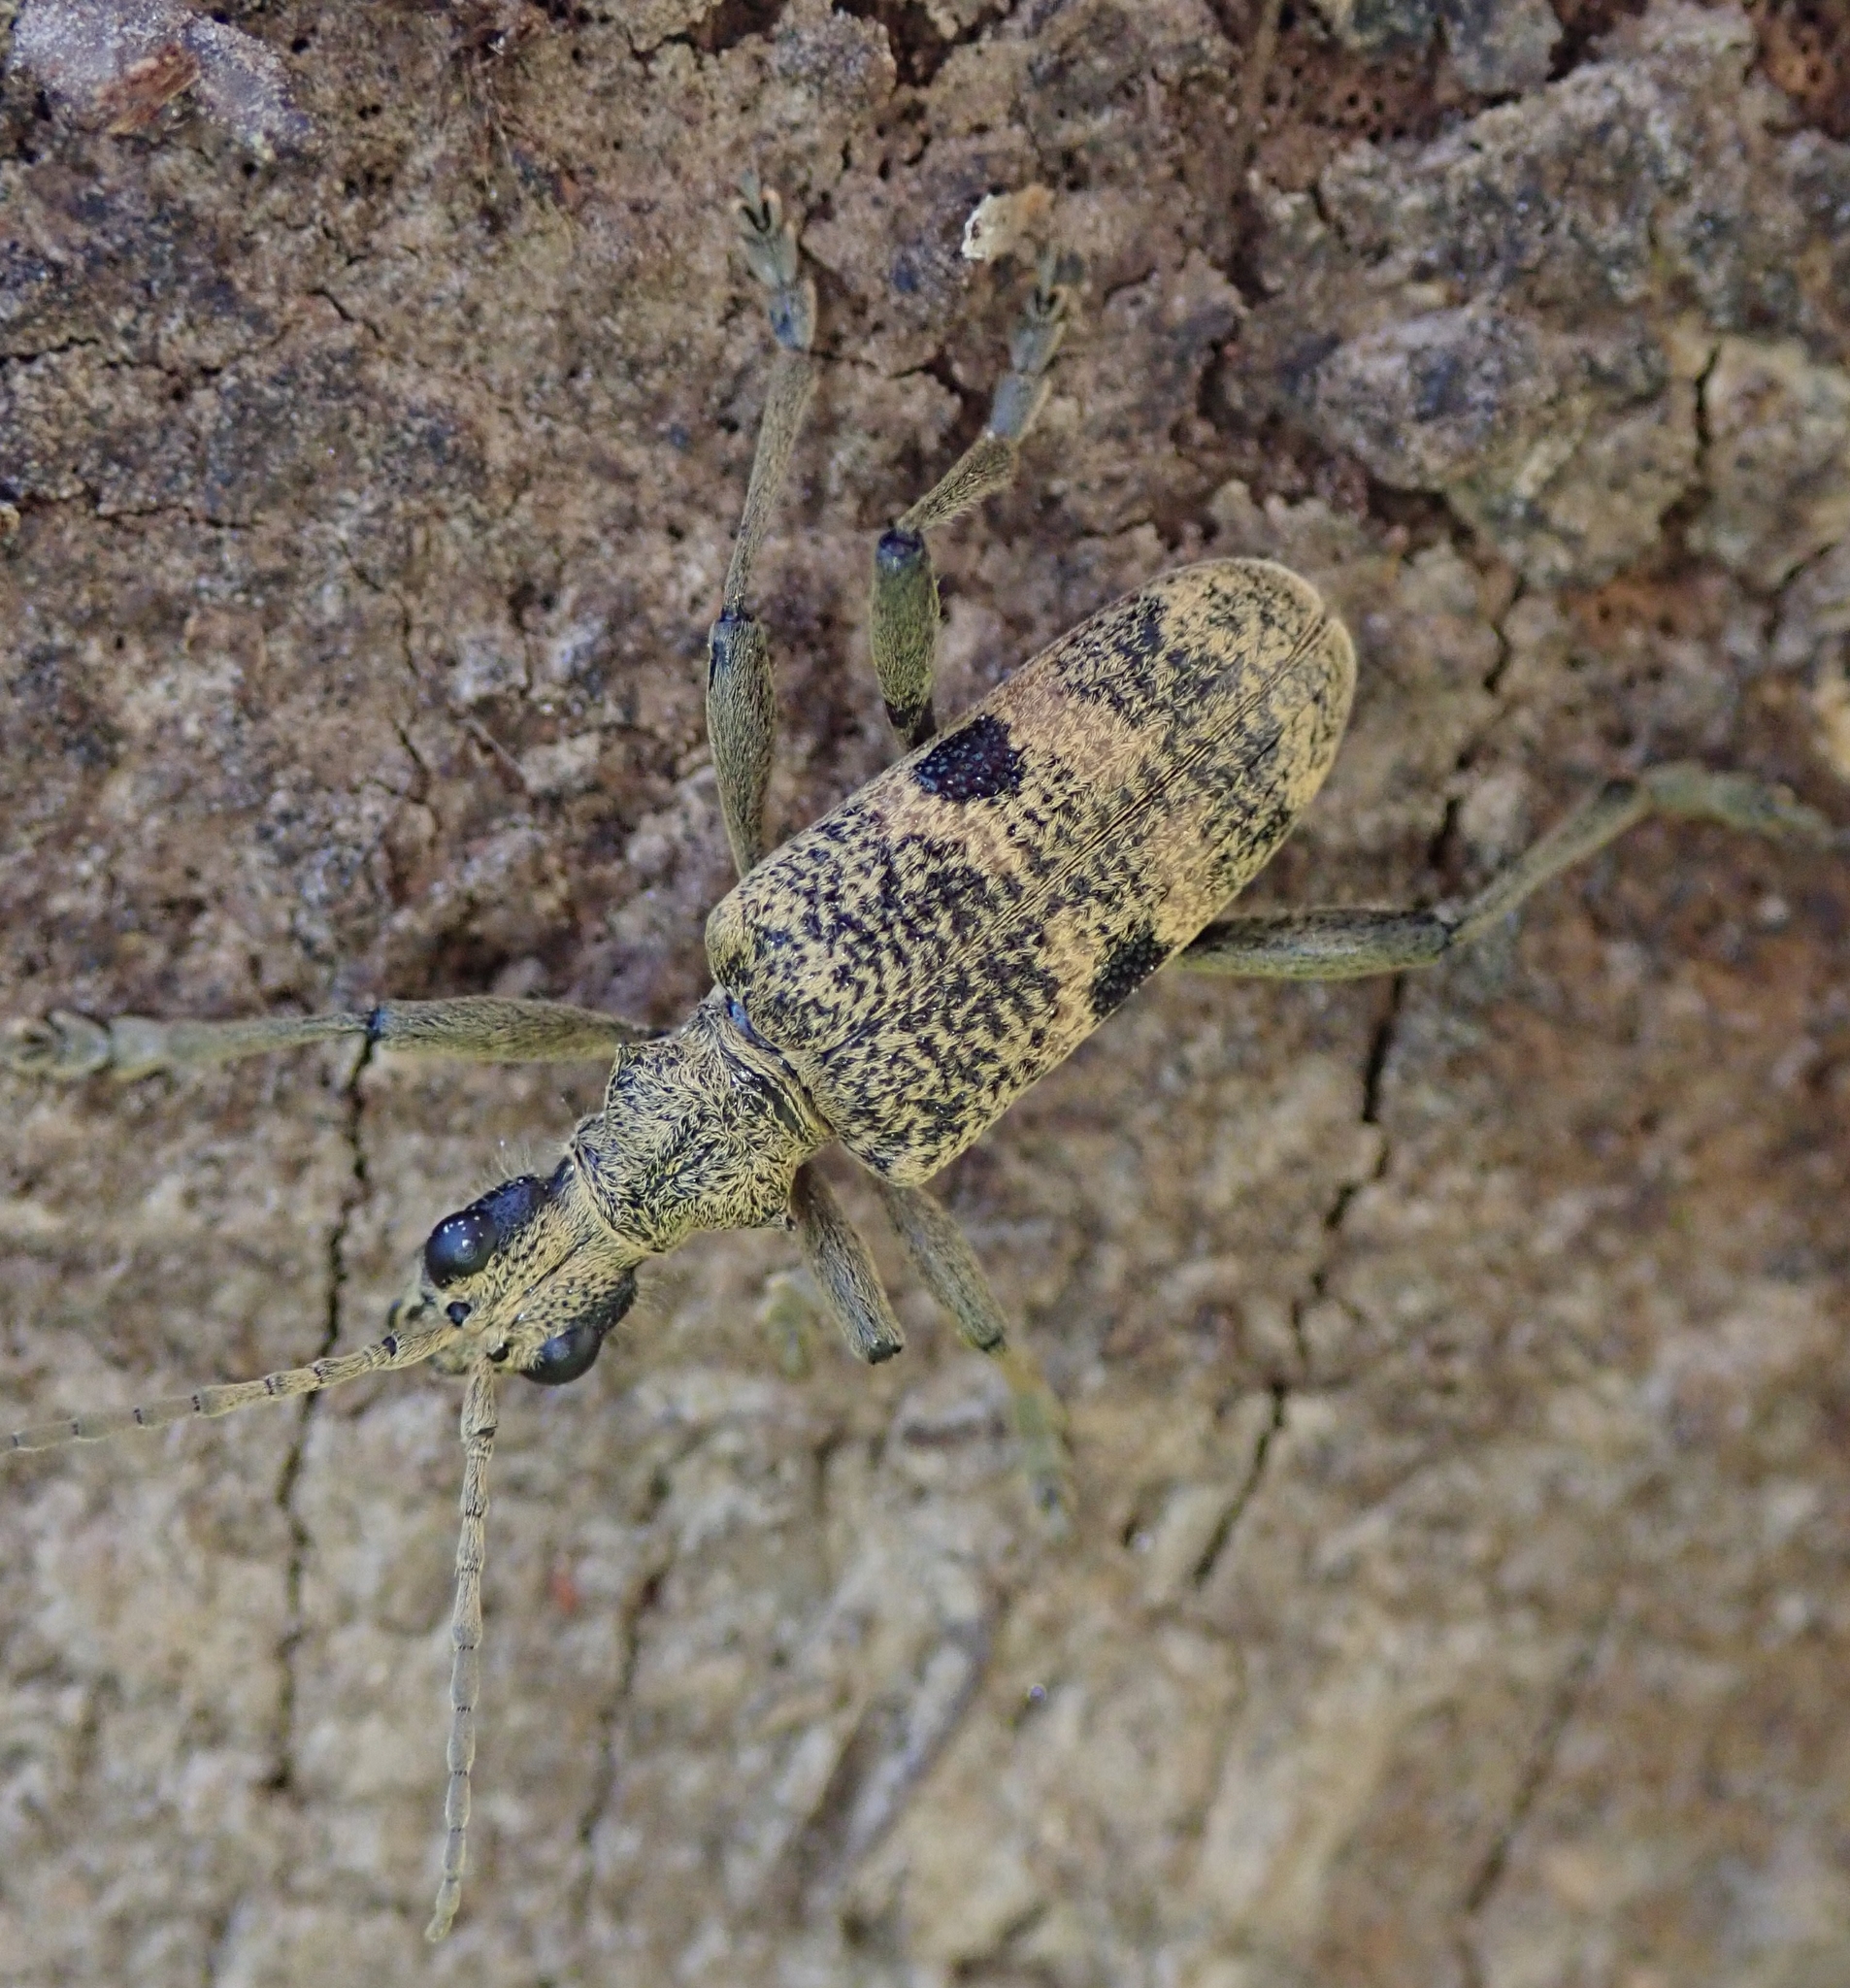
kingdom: Animalia
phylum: Arthropoda
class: Insecta
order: Coleoptera
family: Cerambycidae
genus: Rhagium
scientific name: Rhagium mordax
